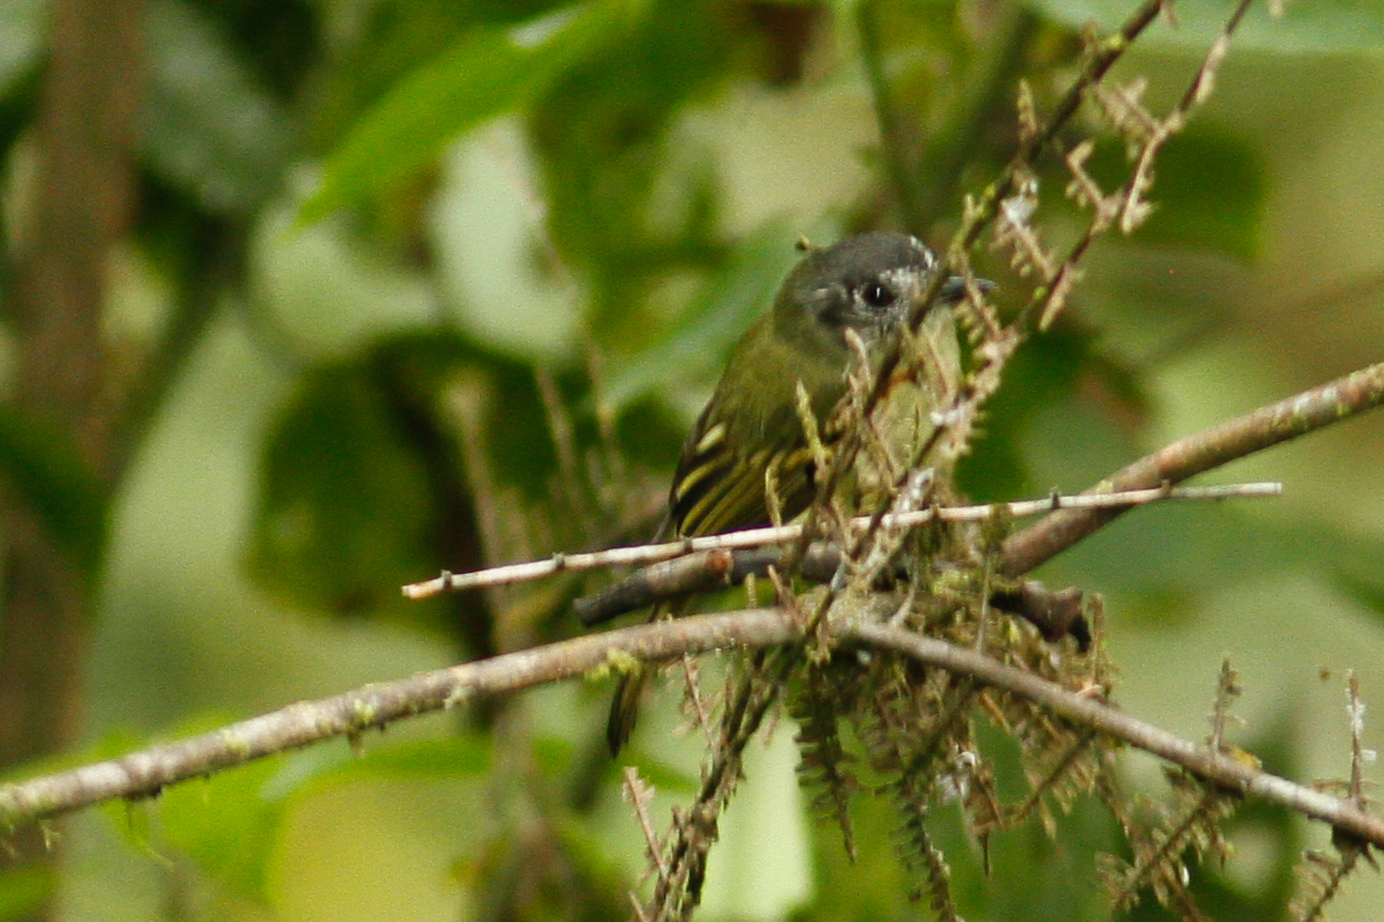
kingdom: Animalia
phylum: Chordata
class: Aves
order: Passeriformes
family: Tyrannidae
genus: Leptopogon
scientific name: Leptopogon superciliaris
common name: Slaty-capped flycatcher
